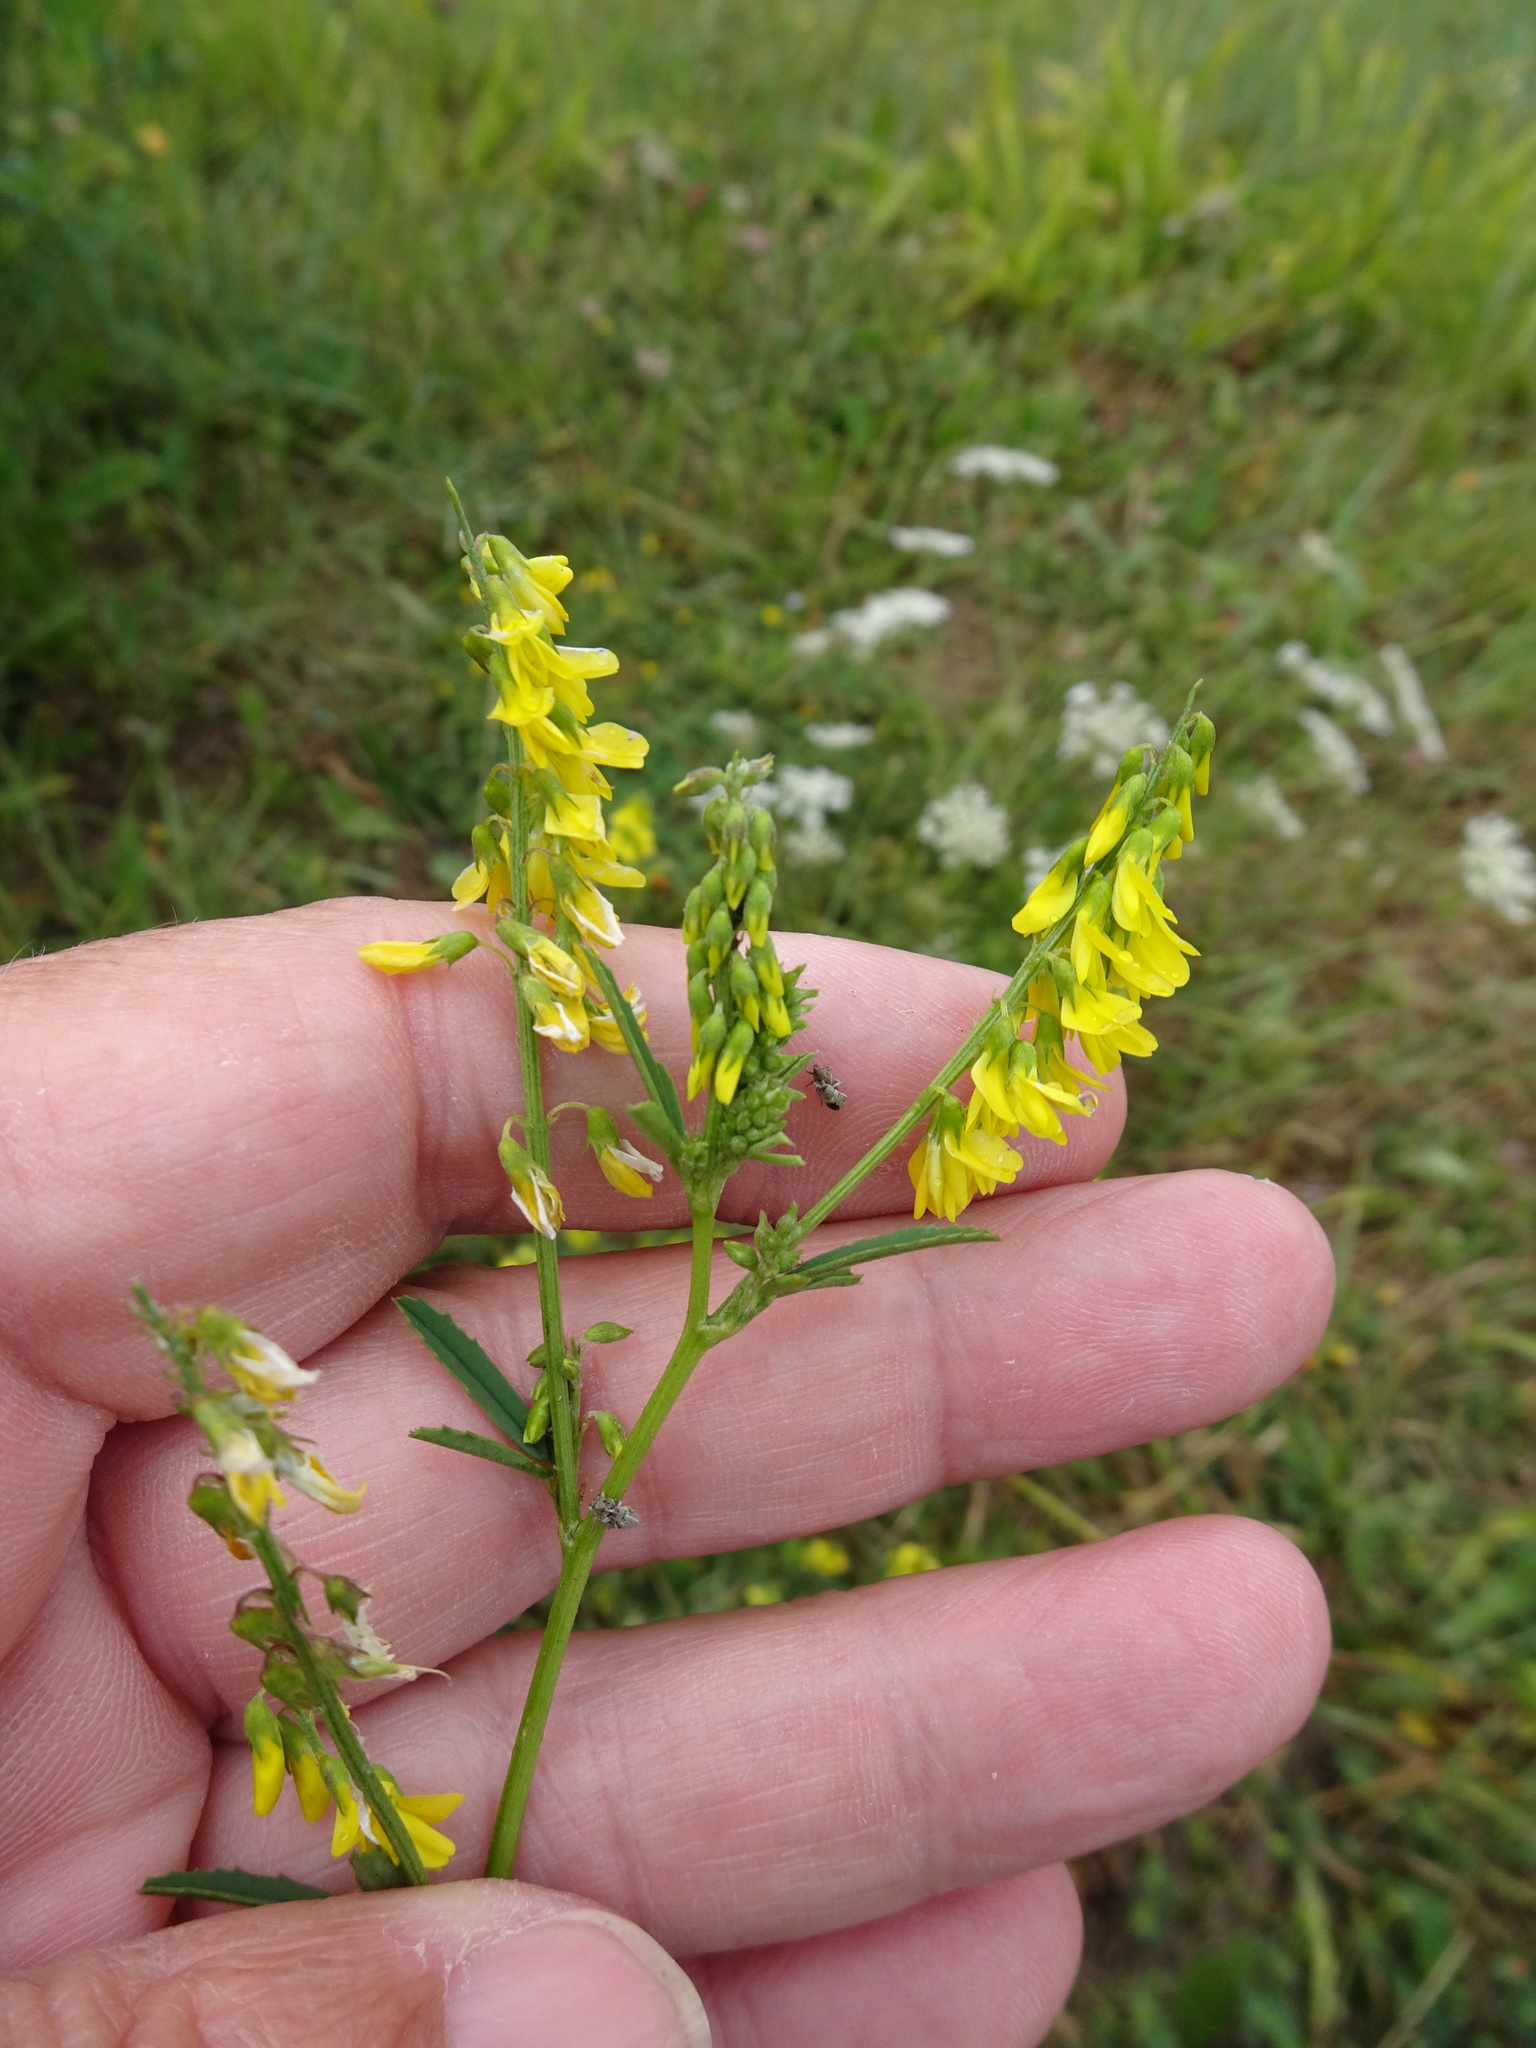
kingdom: Plantae
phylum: Tracheophyta
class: Magnoliopsida
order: Fabales
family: Fabaceae
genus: Melilotus
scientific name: Melilotus altissimus
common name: Tall melilot
